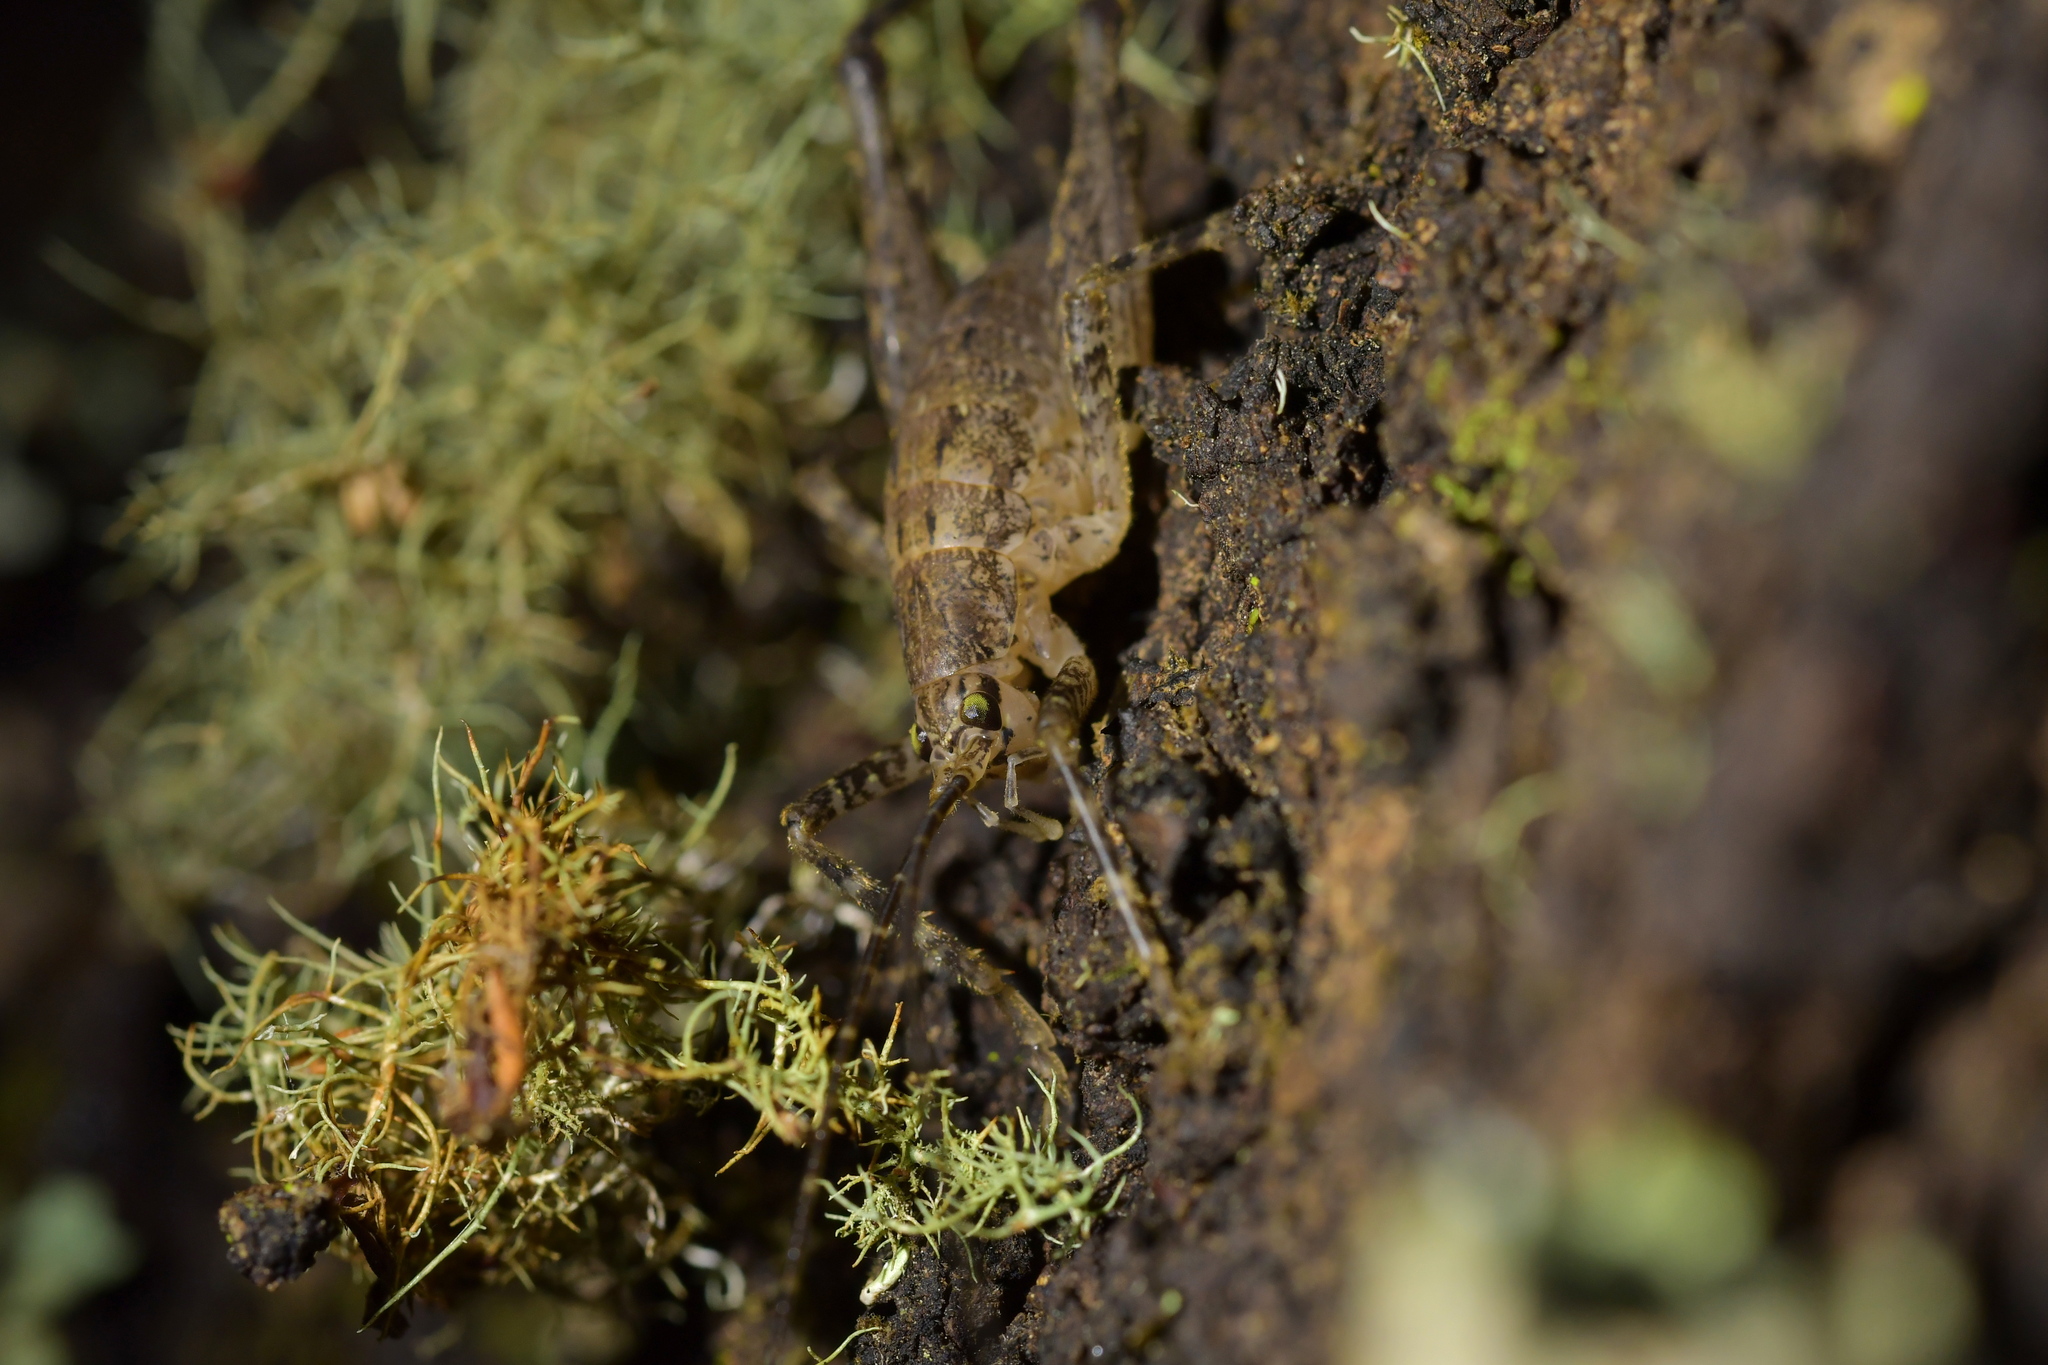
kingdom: Animalia
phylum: Arthropoda
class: Insecta
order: Orthoptera
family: Rhaphidophoridae
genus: Isoplectron
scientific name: Isoplectron armatum
